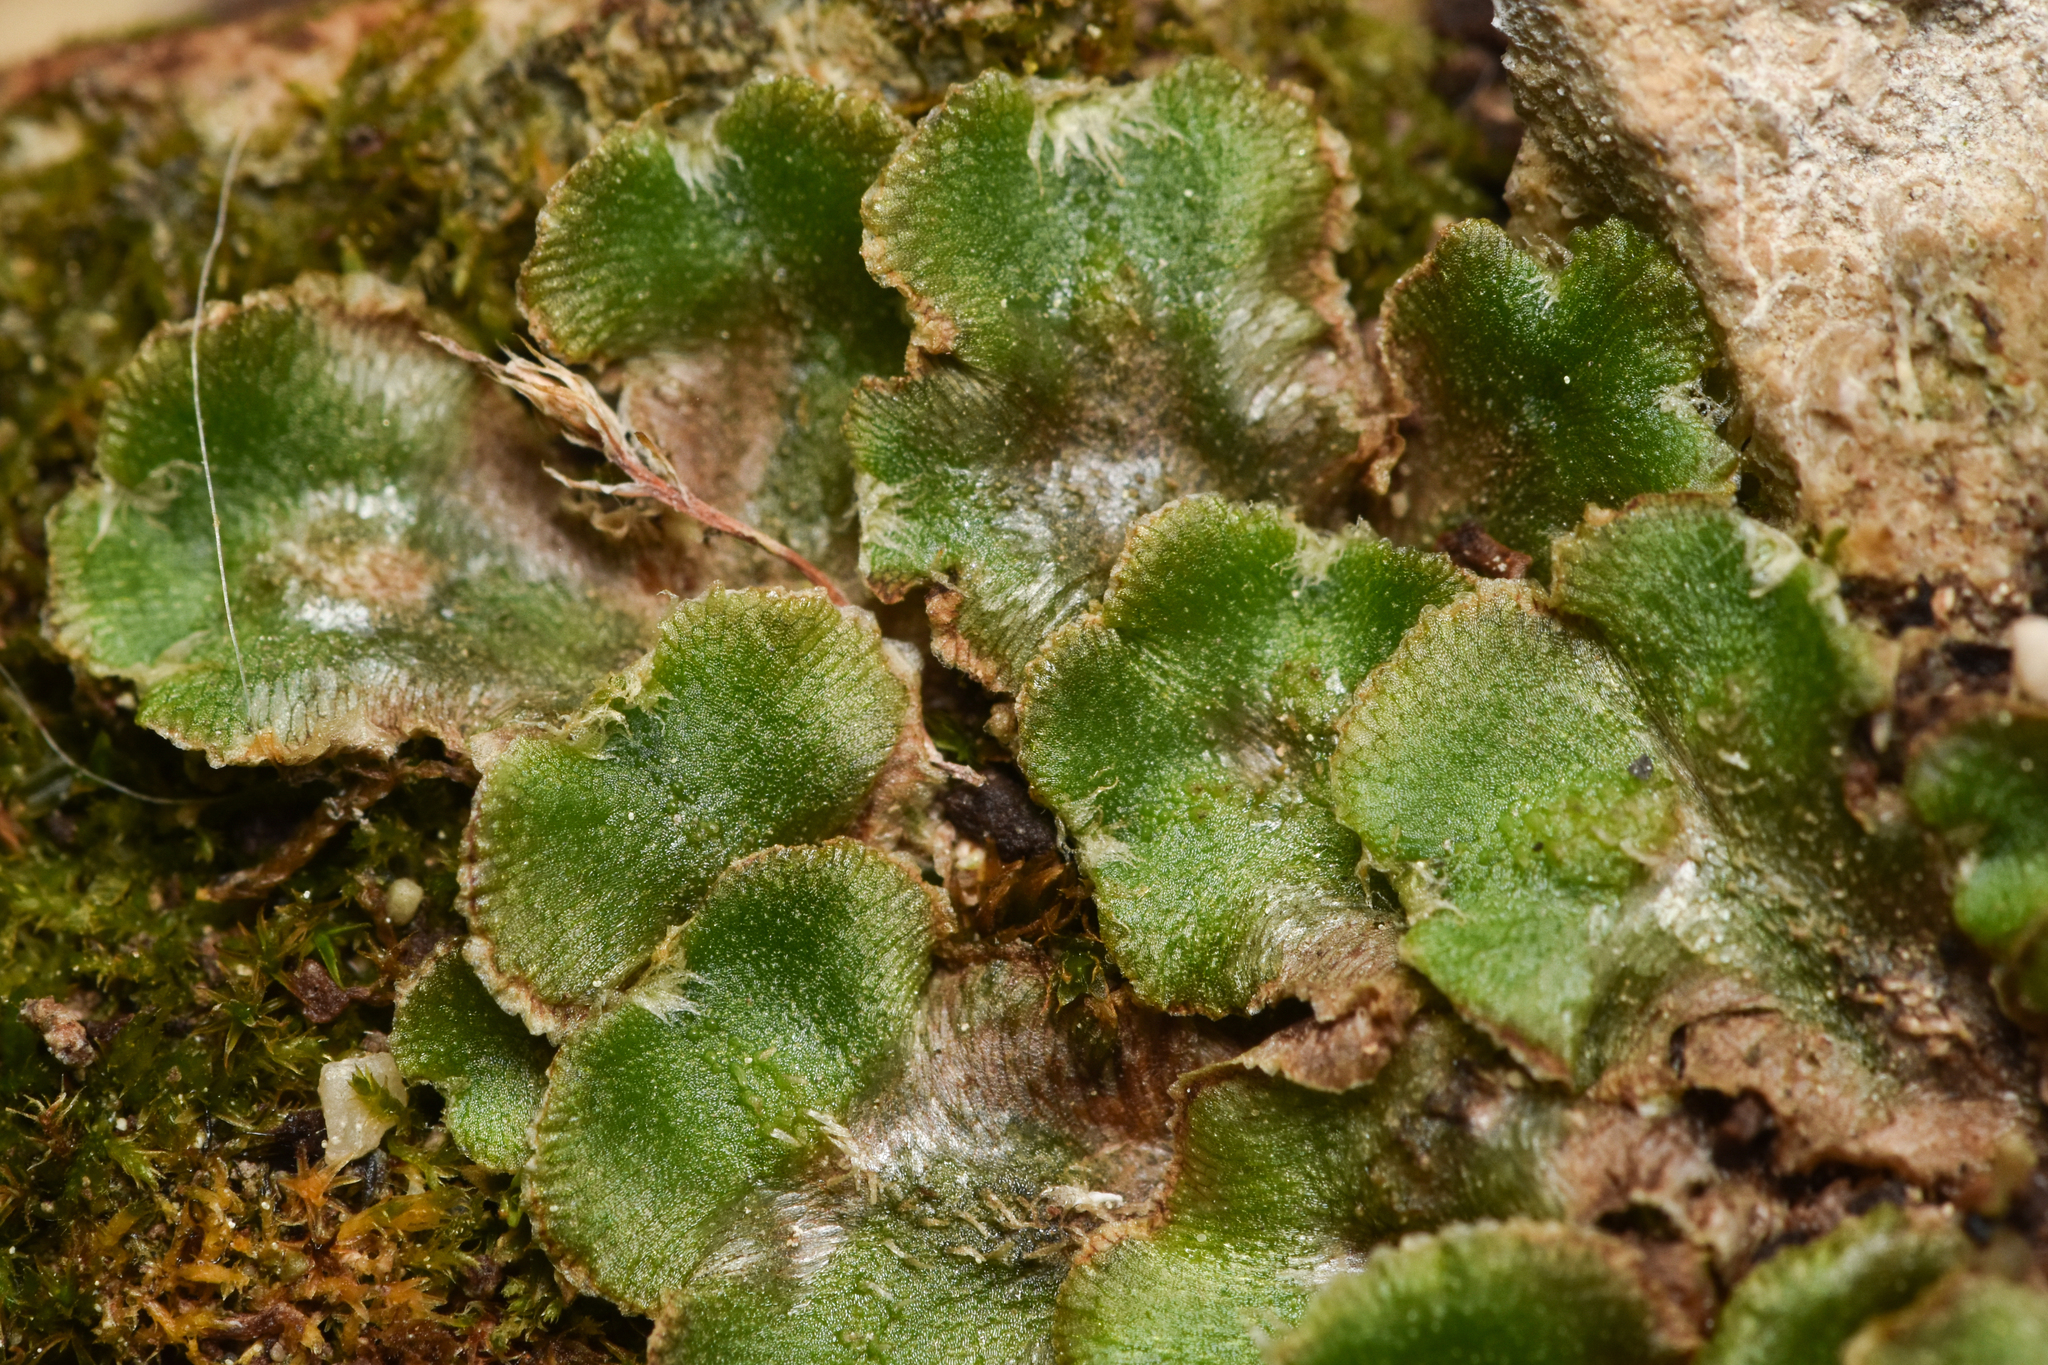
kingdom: Plantae
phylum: Marchantiophyta
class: Marchantiopsida
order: Marchantiales
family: Cleveaceae
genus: Clevea
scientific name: Clevea hyalina
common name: Hyaline liverwort
